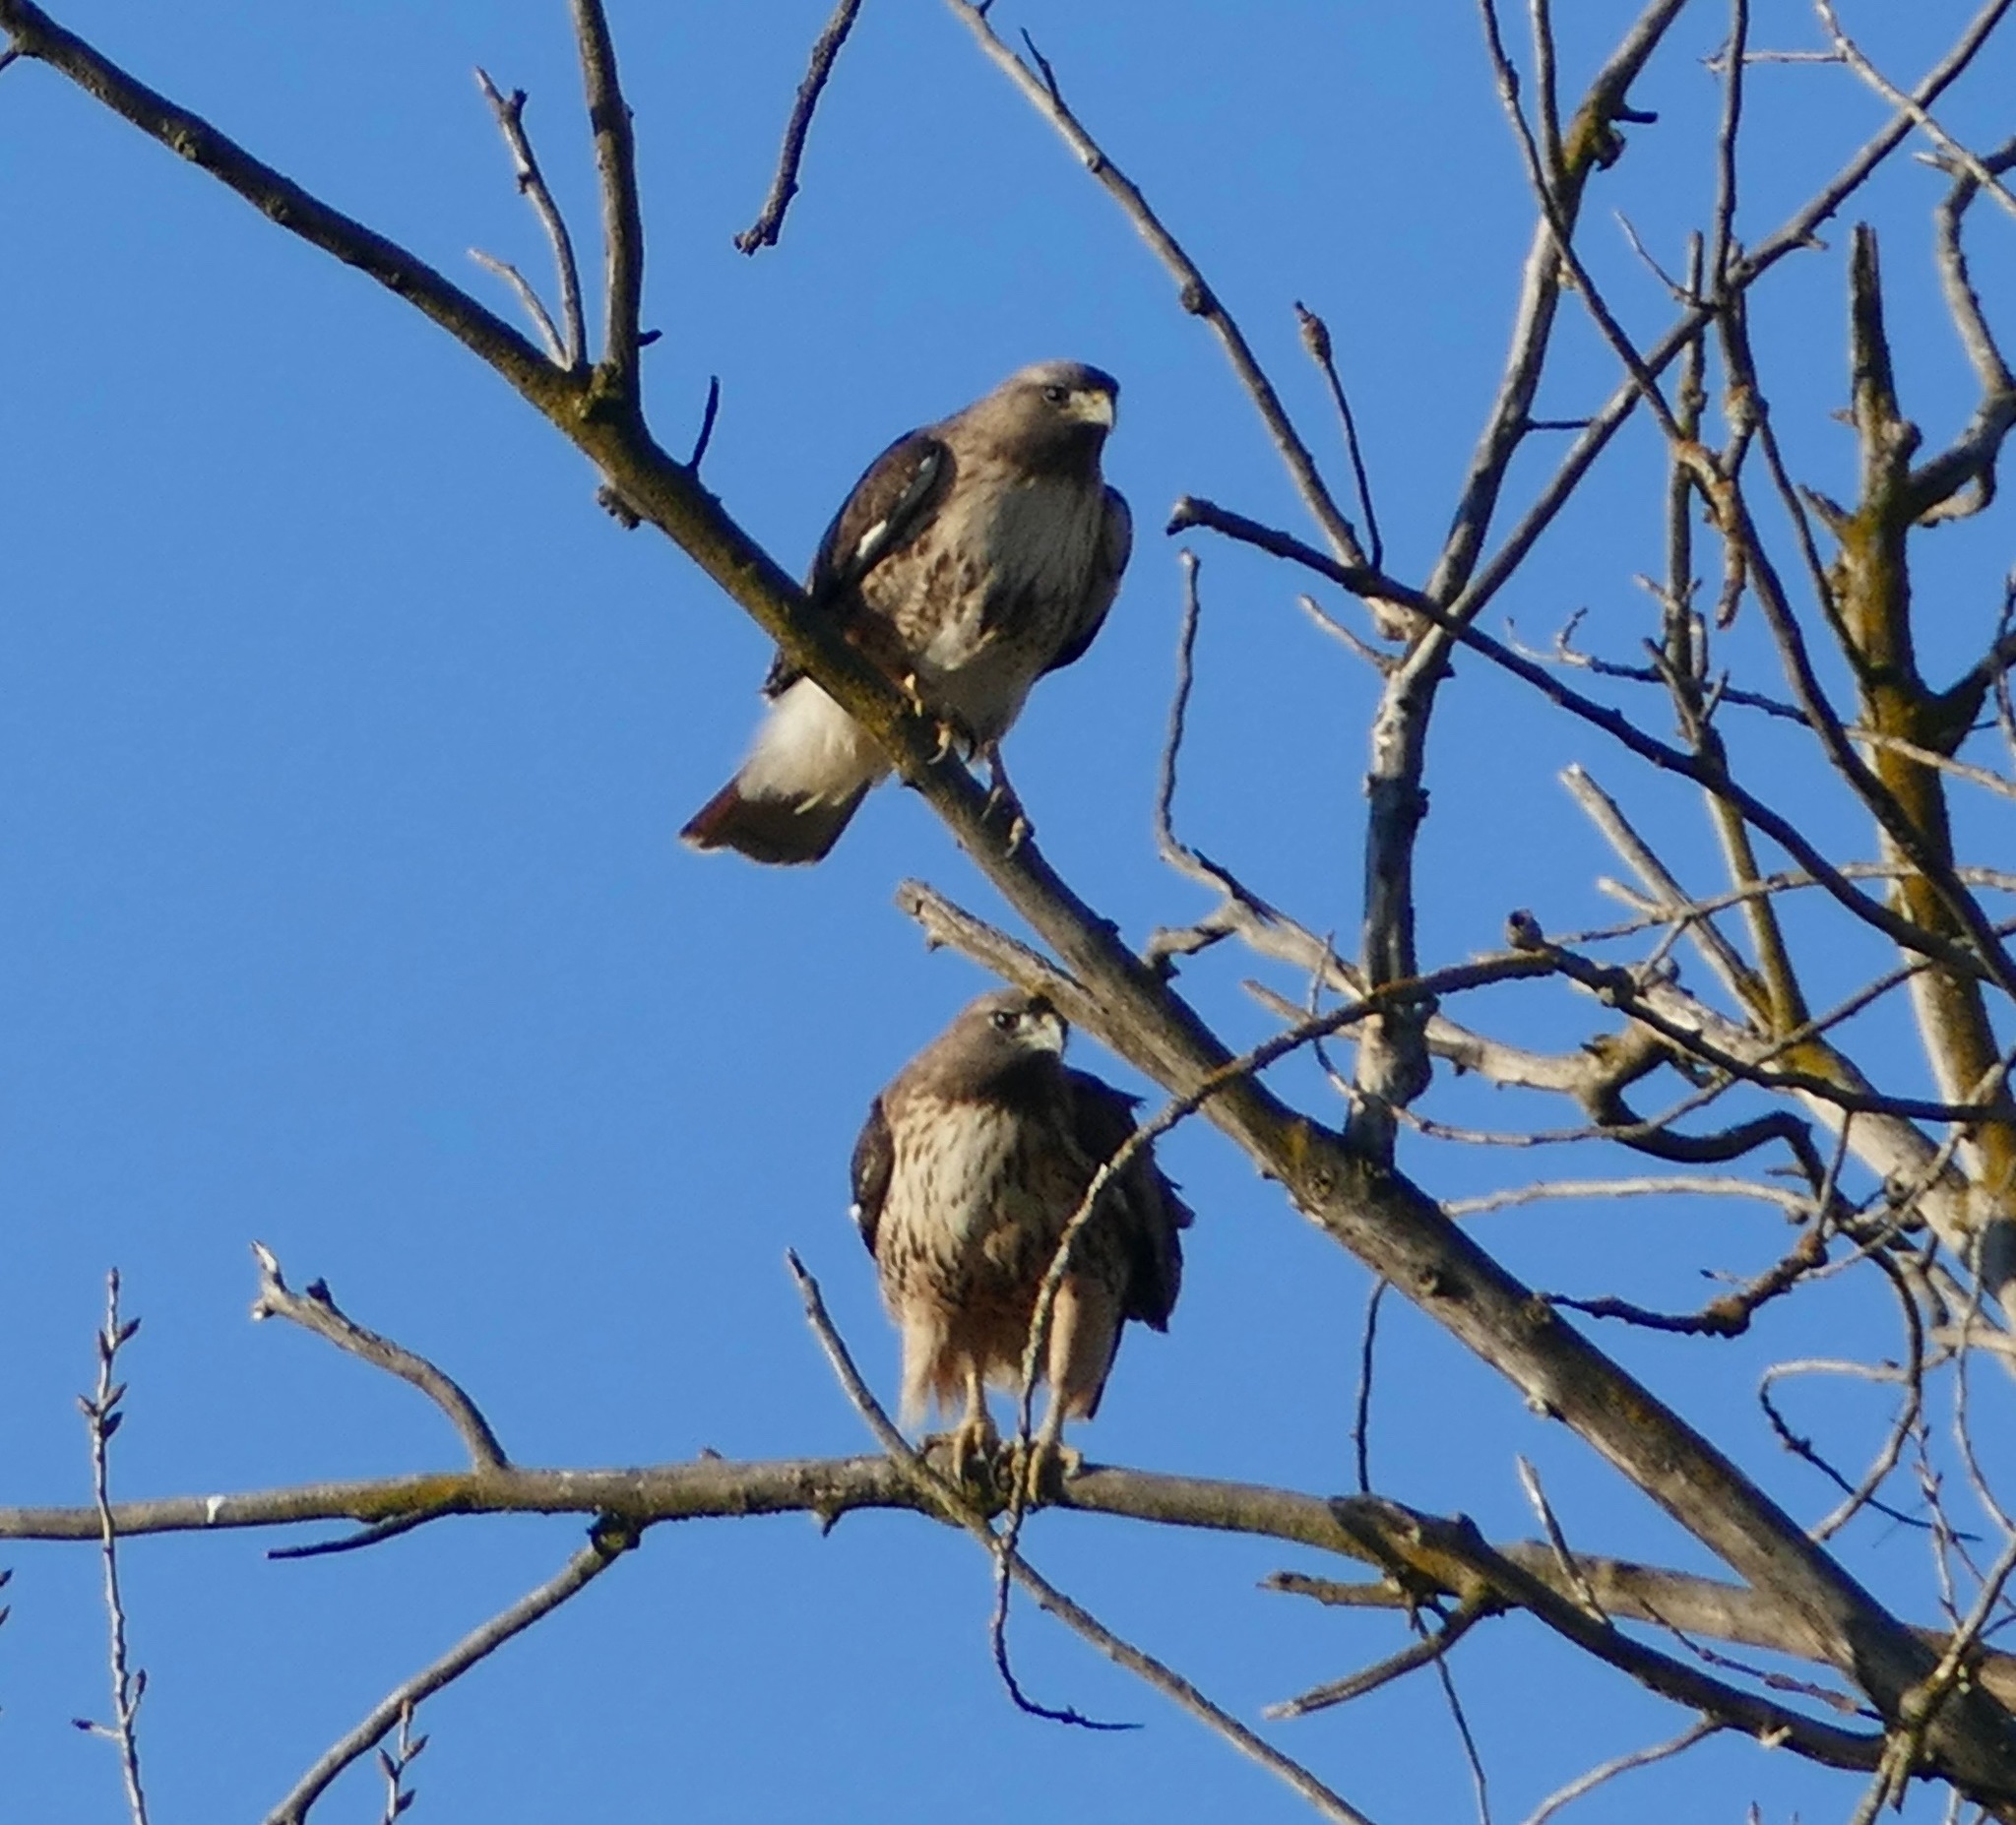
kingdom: Animalia
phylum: Chordata
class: Aves
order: Accipitriformes
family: Accipitridae
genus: Buteo
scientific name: Buteo jamaicensis
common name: Red-tailed hawk
